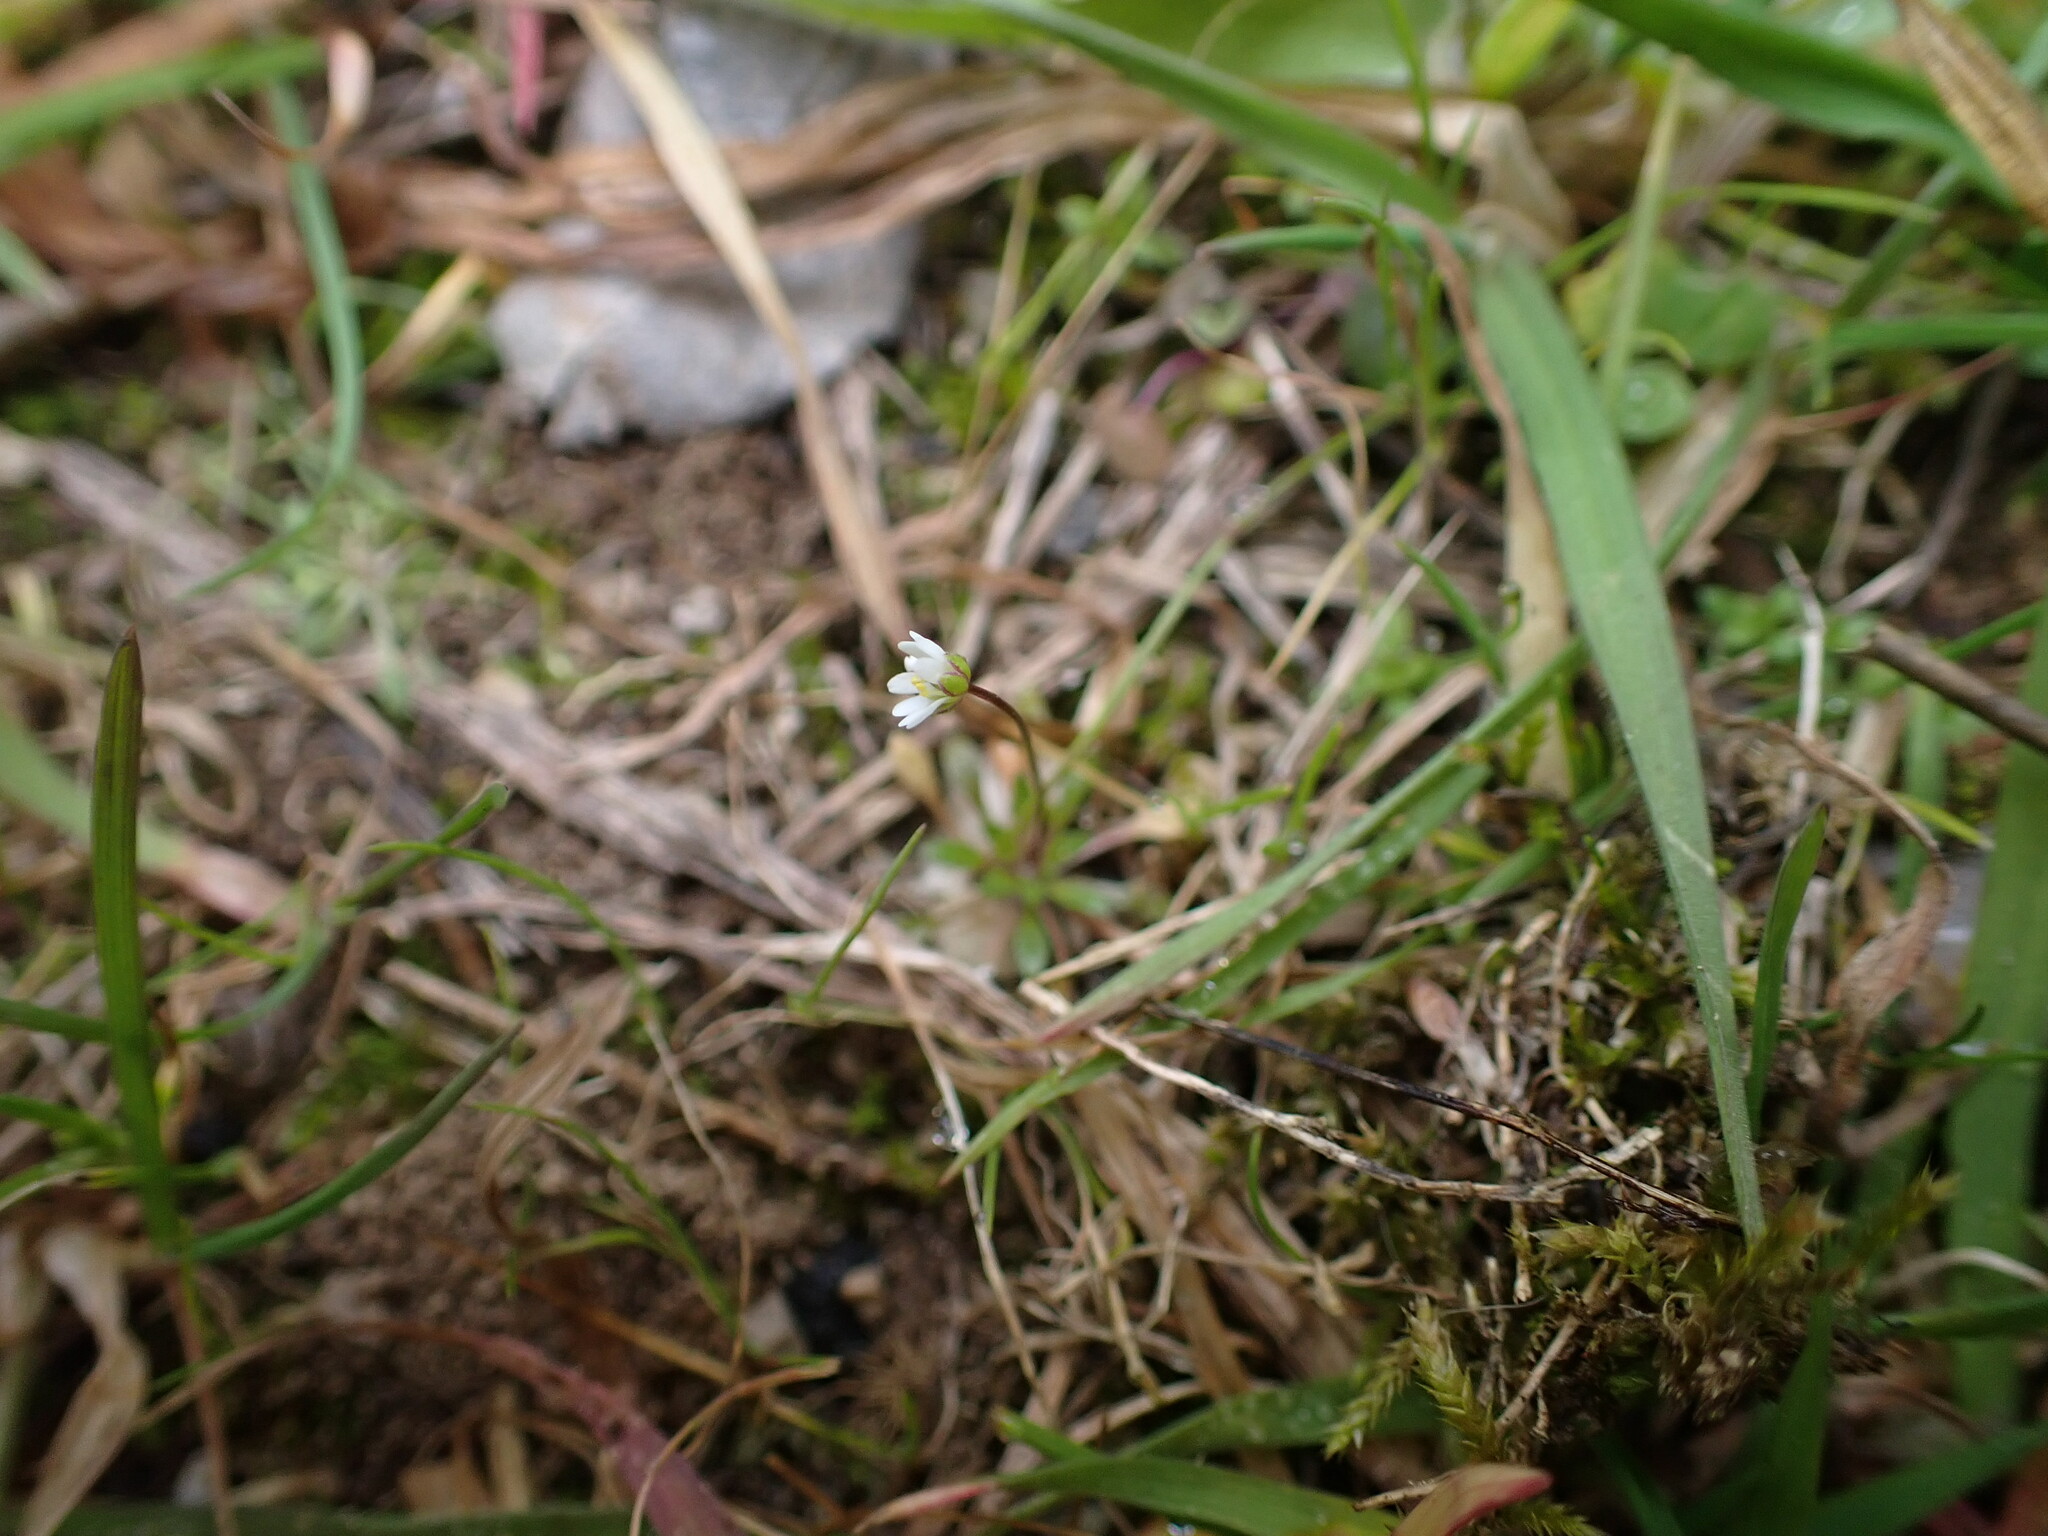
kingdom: Plantae
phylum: Tracheophyta
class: Magnoliopsida
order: Brassicales
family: Brassicaceae
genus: Draba
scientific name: Draba verna
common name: Spring draba
